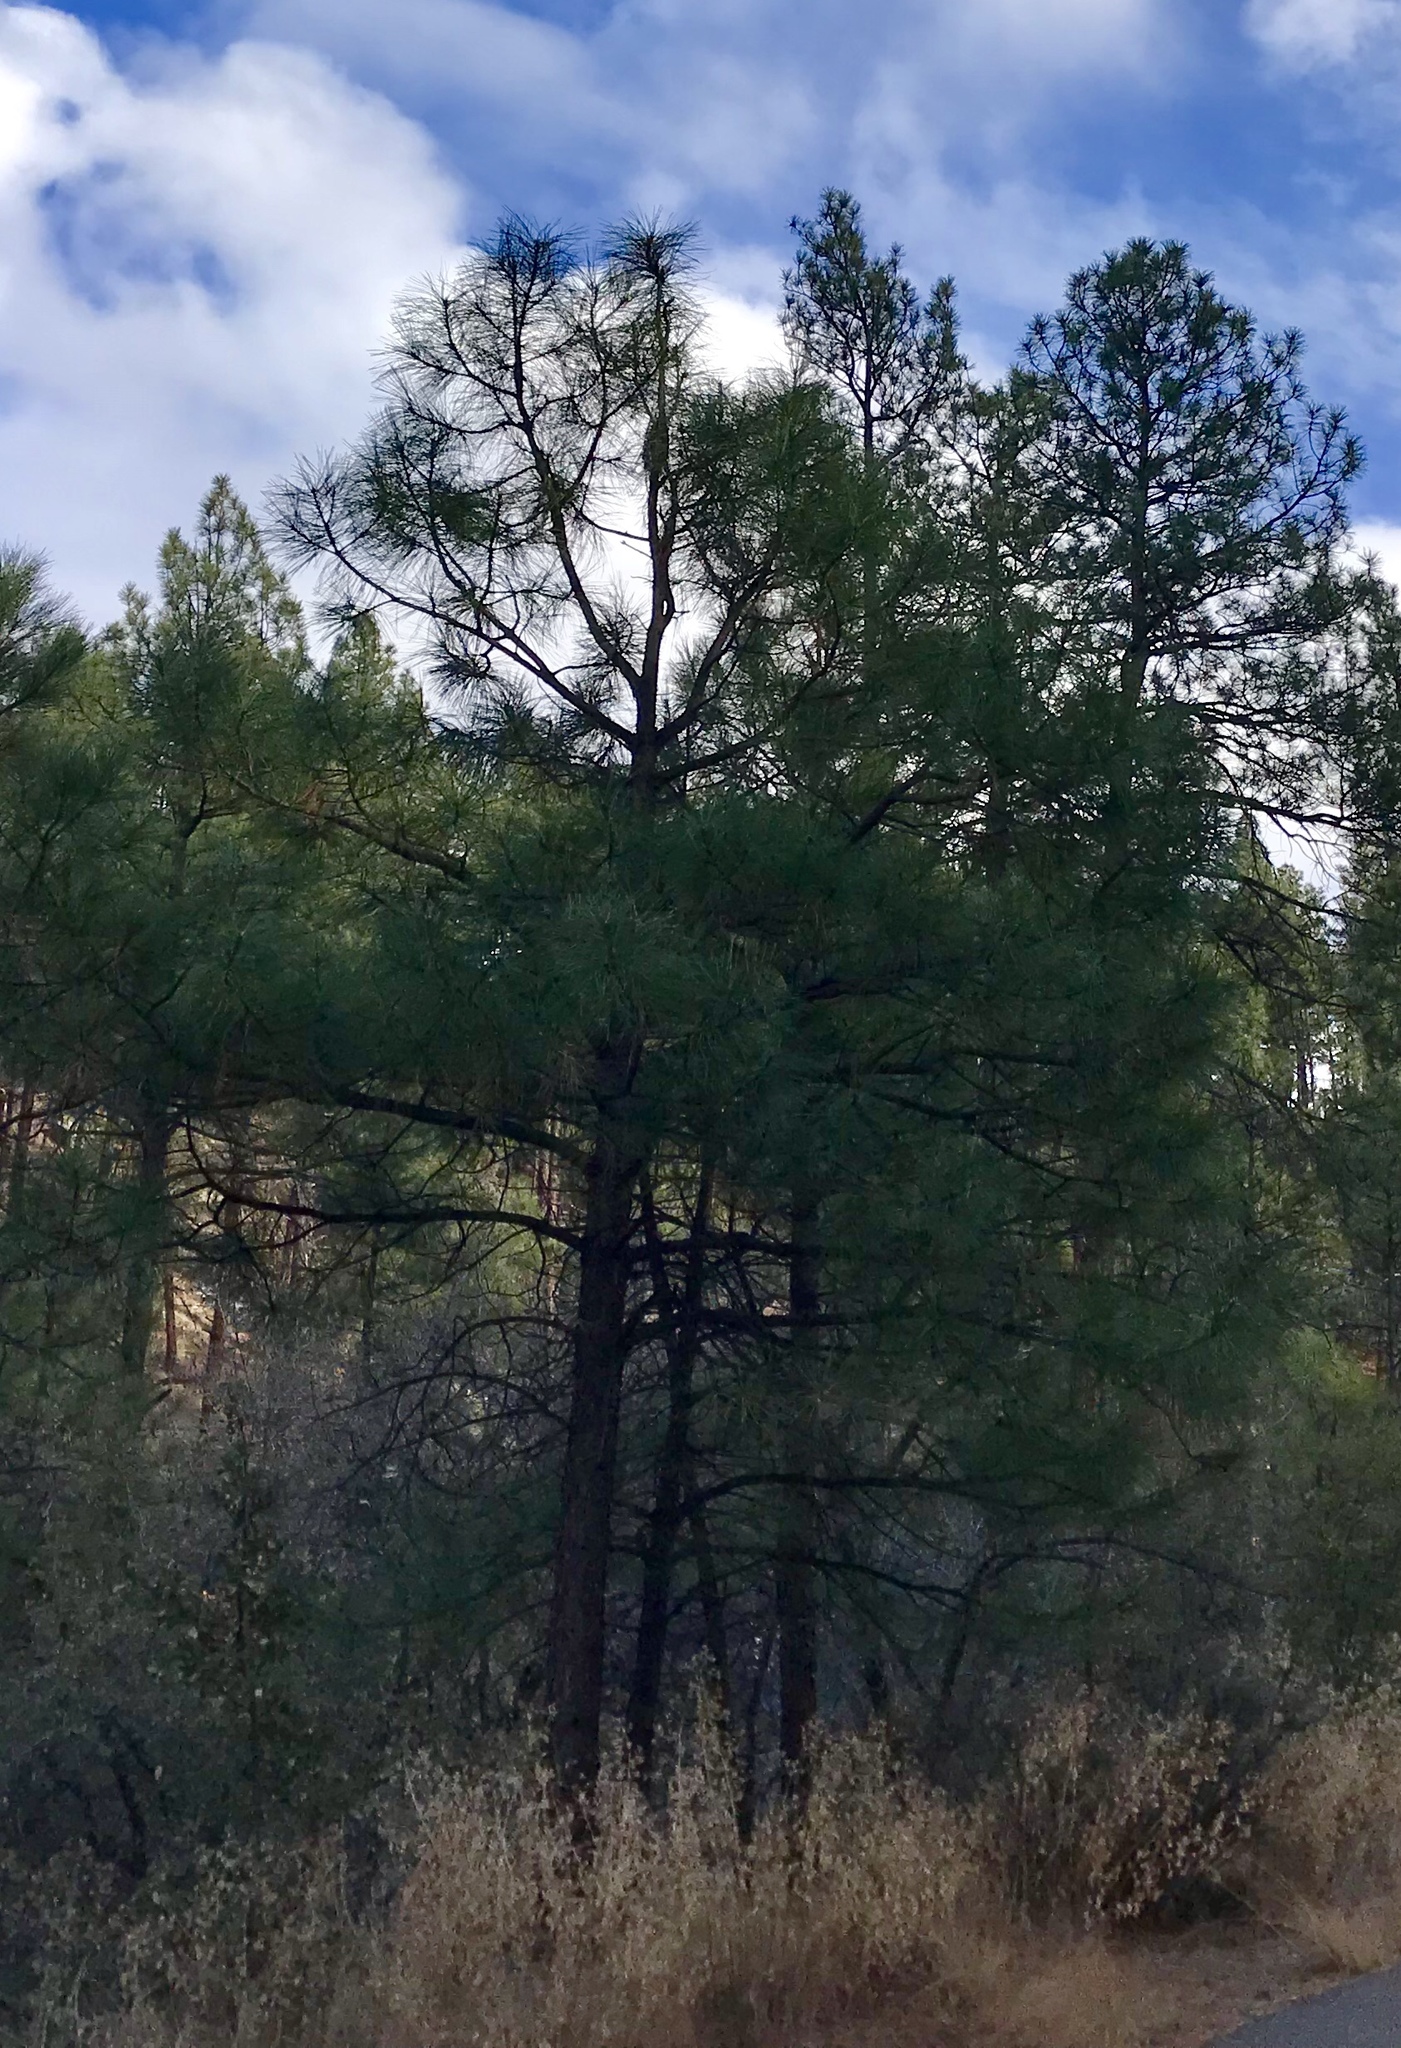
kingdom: Plantae
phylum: Tracheophyta
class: Pinopsida
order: Pinales
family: Pinaceae
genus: Pinus
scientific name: Pinus ponderosa
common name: Western yellow-pine
